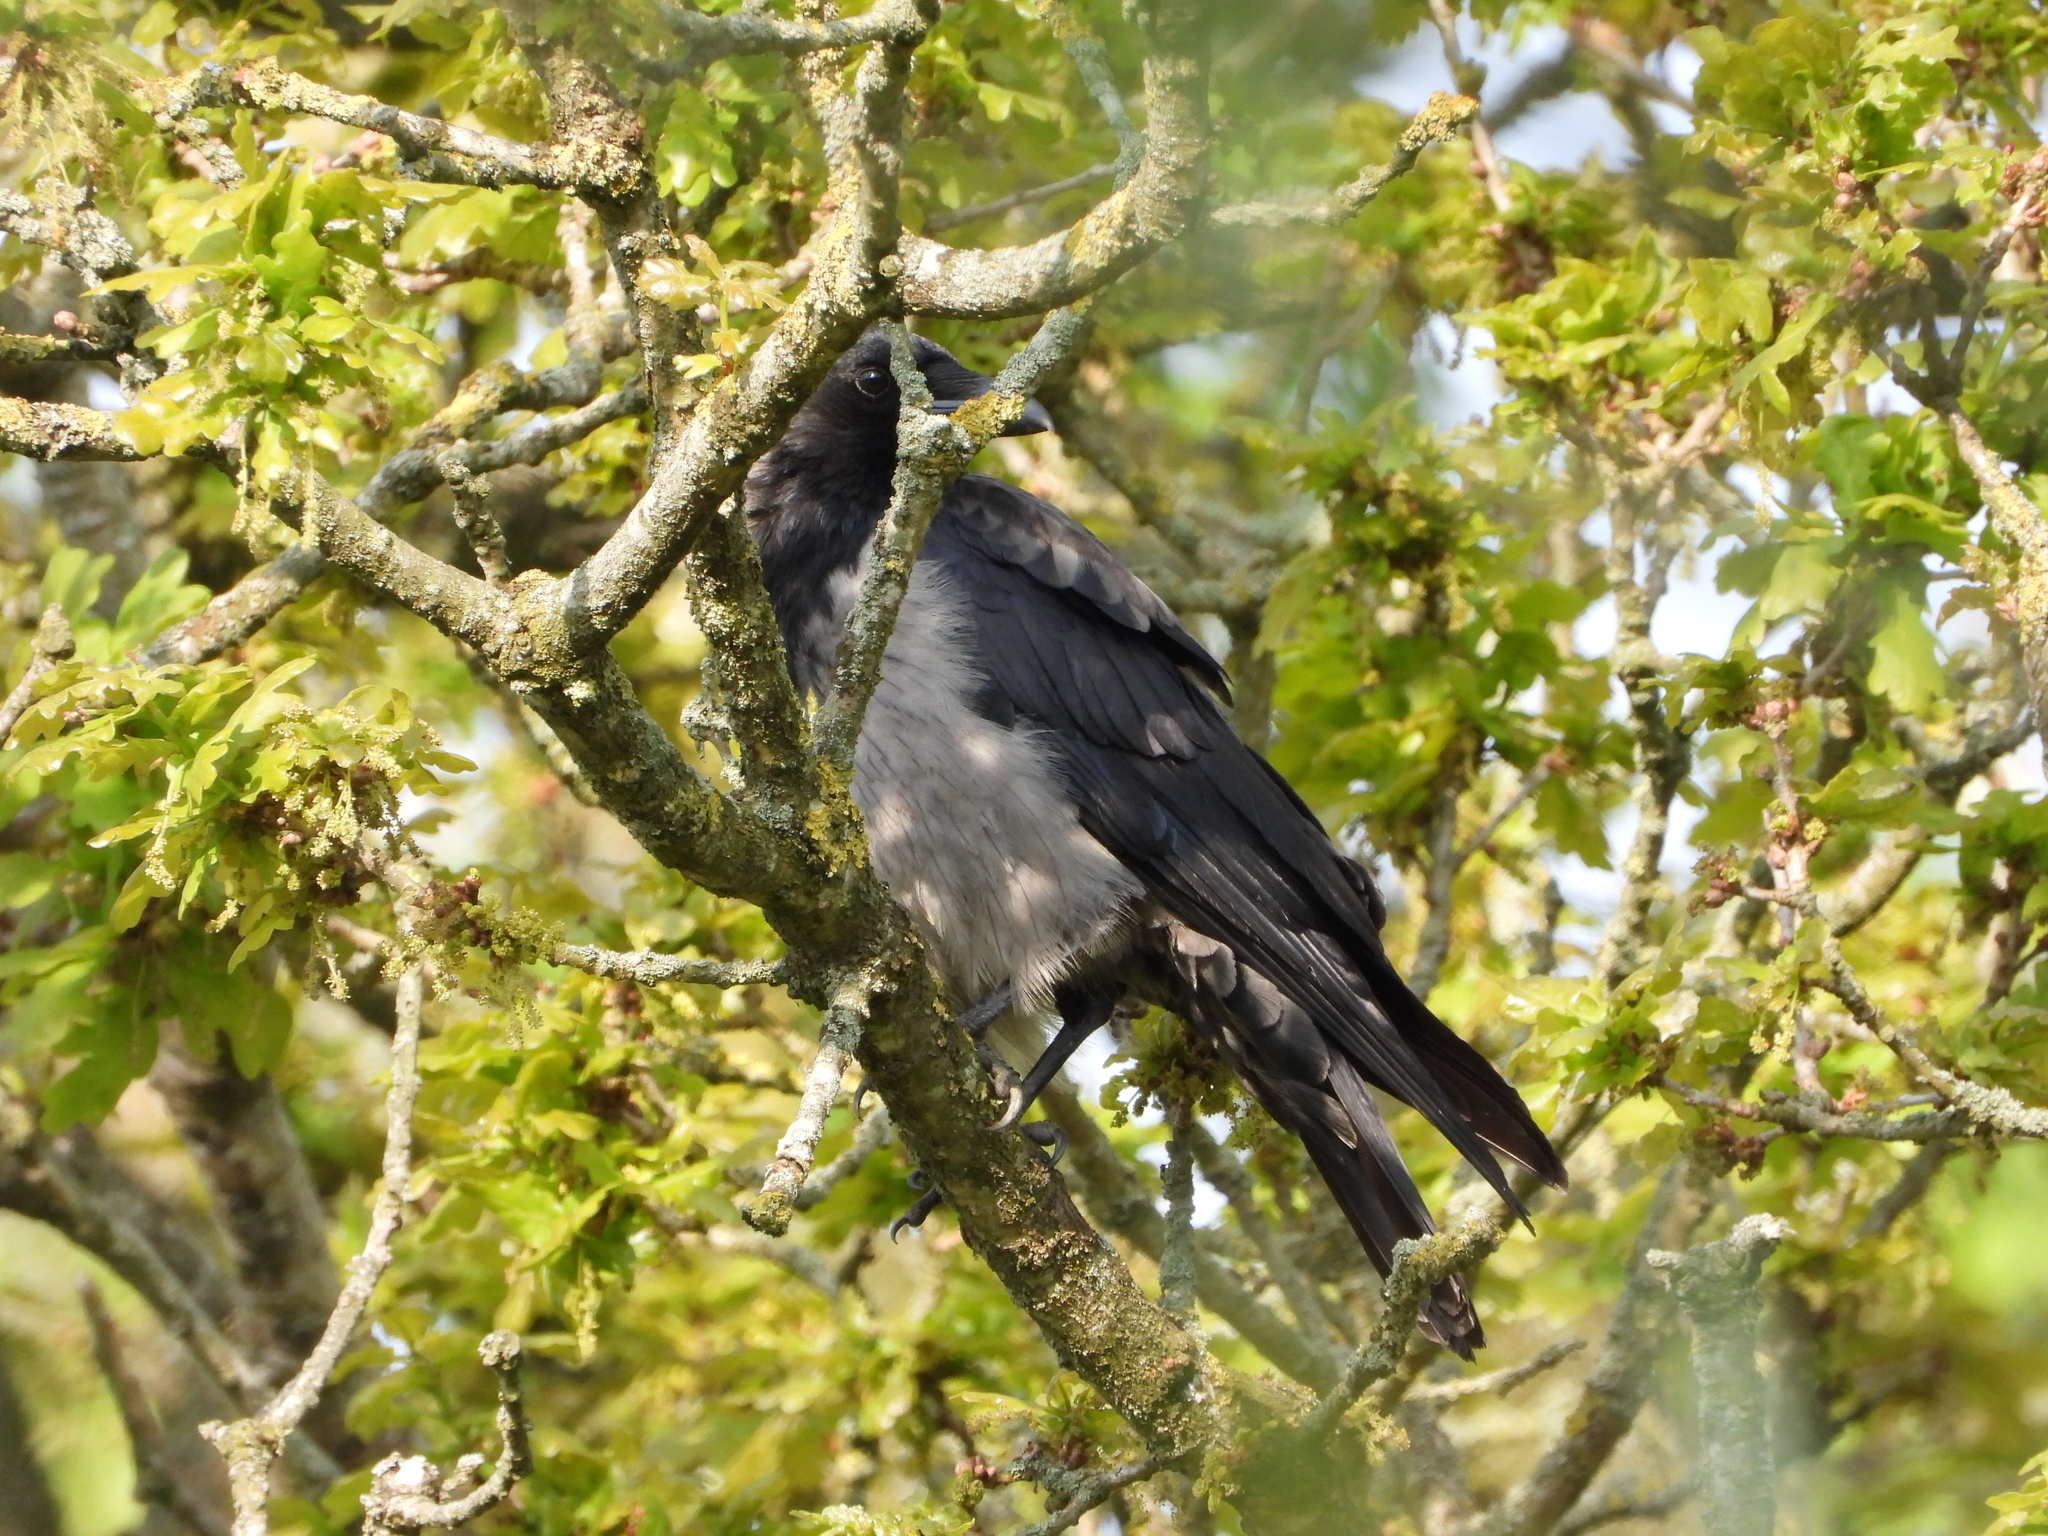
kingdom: Animalia
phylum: Chordata
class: Aves
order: Passeriformes
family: Corvidae
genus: Corvus
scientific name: Corvus
